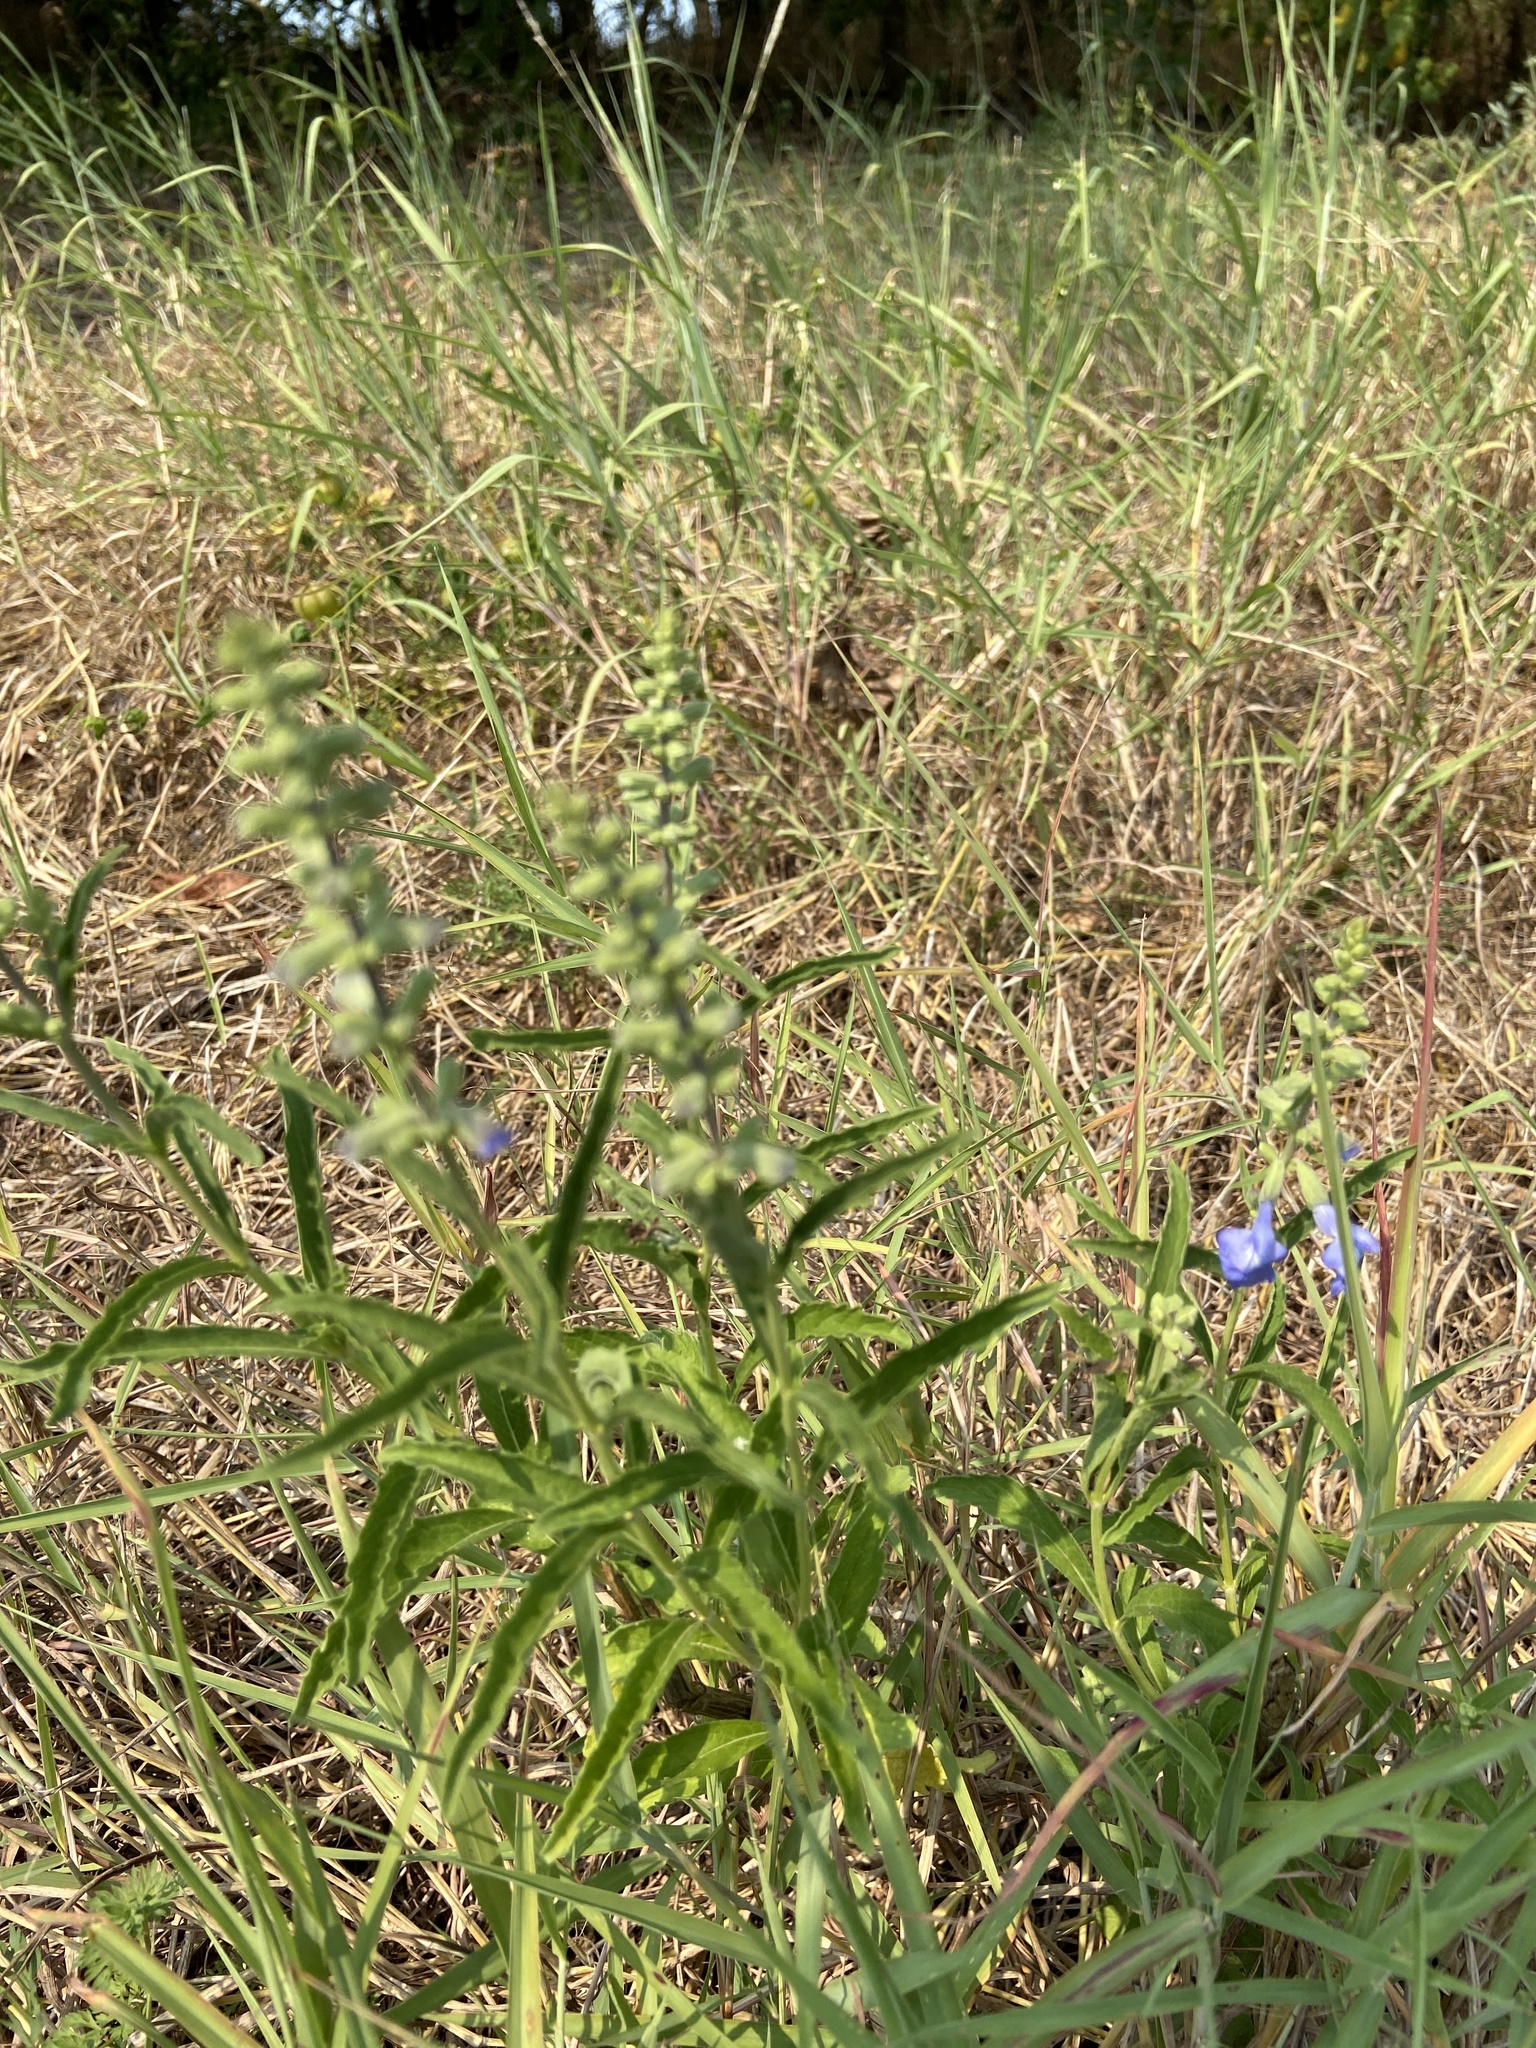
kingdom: Plantae
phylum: Tracheophyta
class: Magnoliopsida
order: Lamiales
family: Lamiaceae
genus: Salvia
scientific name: Salvia azurea
